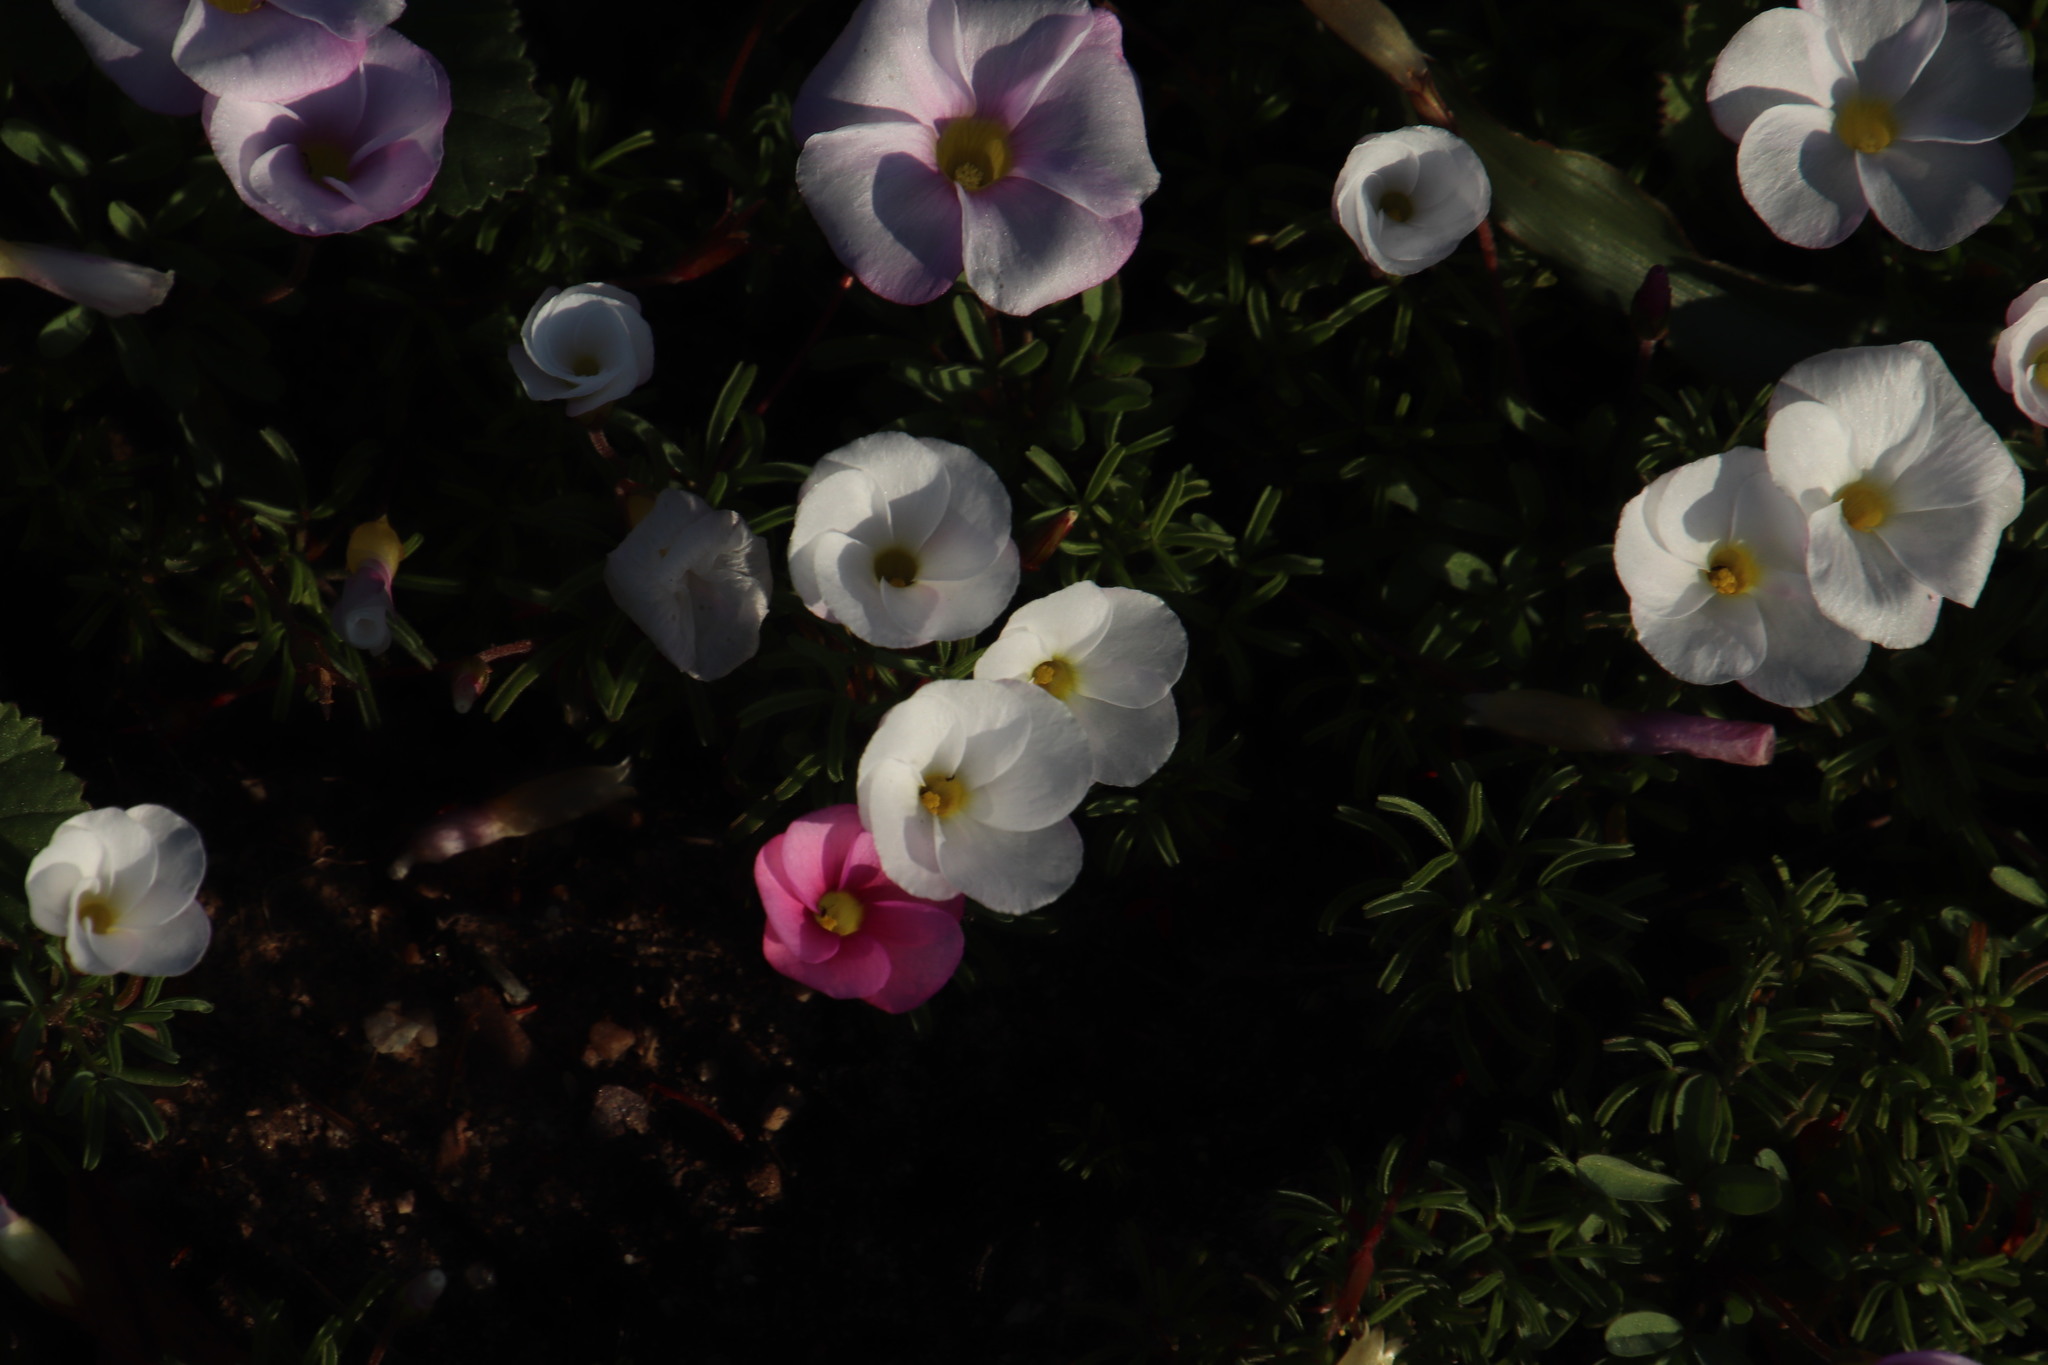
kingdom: Plantae
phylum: Tracheophyta
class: Magnoliopsida
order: Oxalidales
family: Oxalidaceae
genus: Oxalis
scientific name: Oxalis glabra
